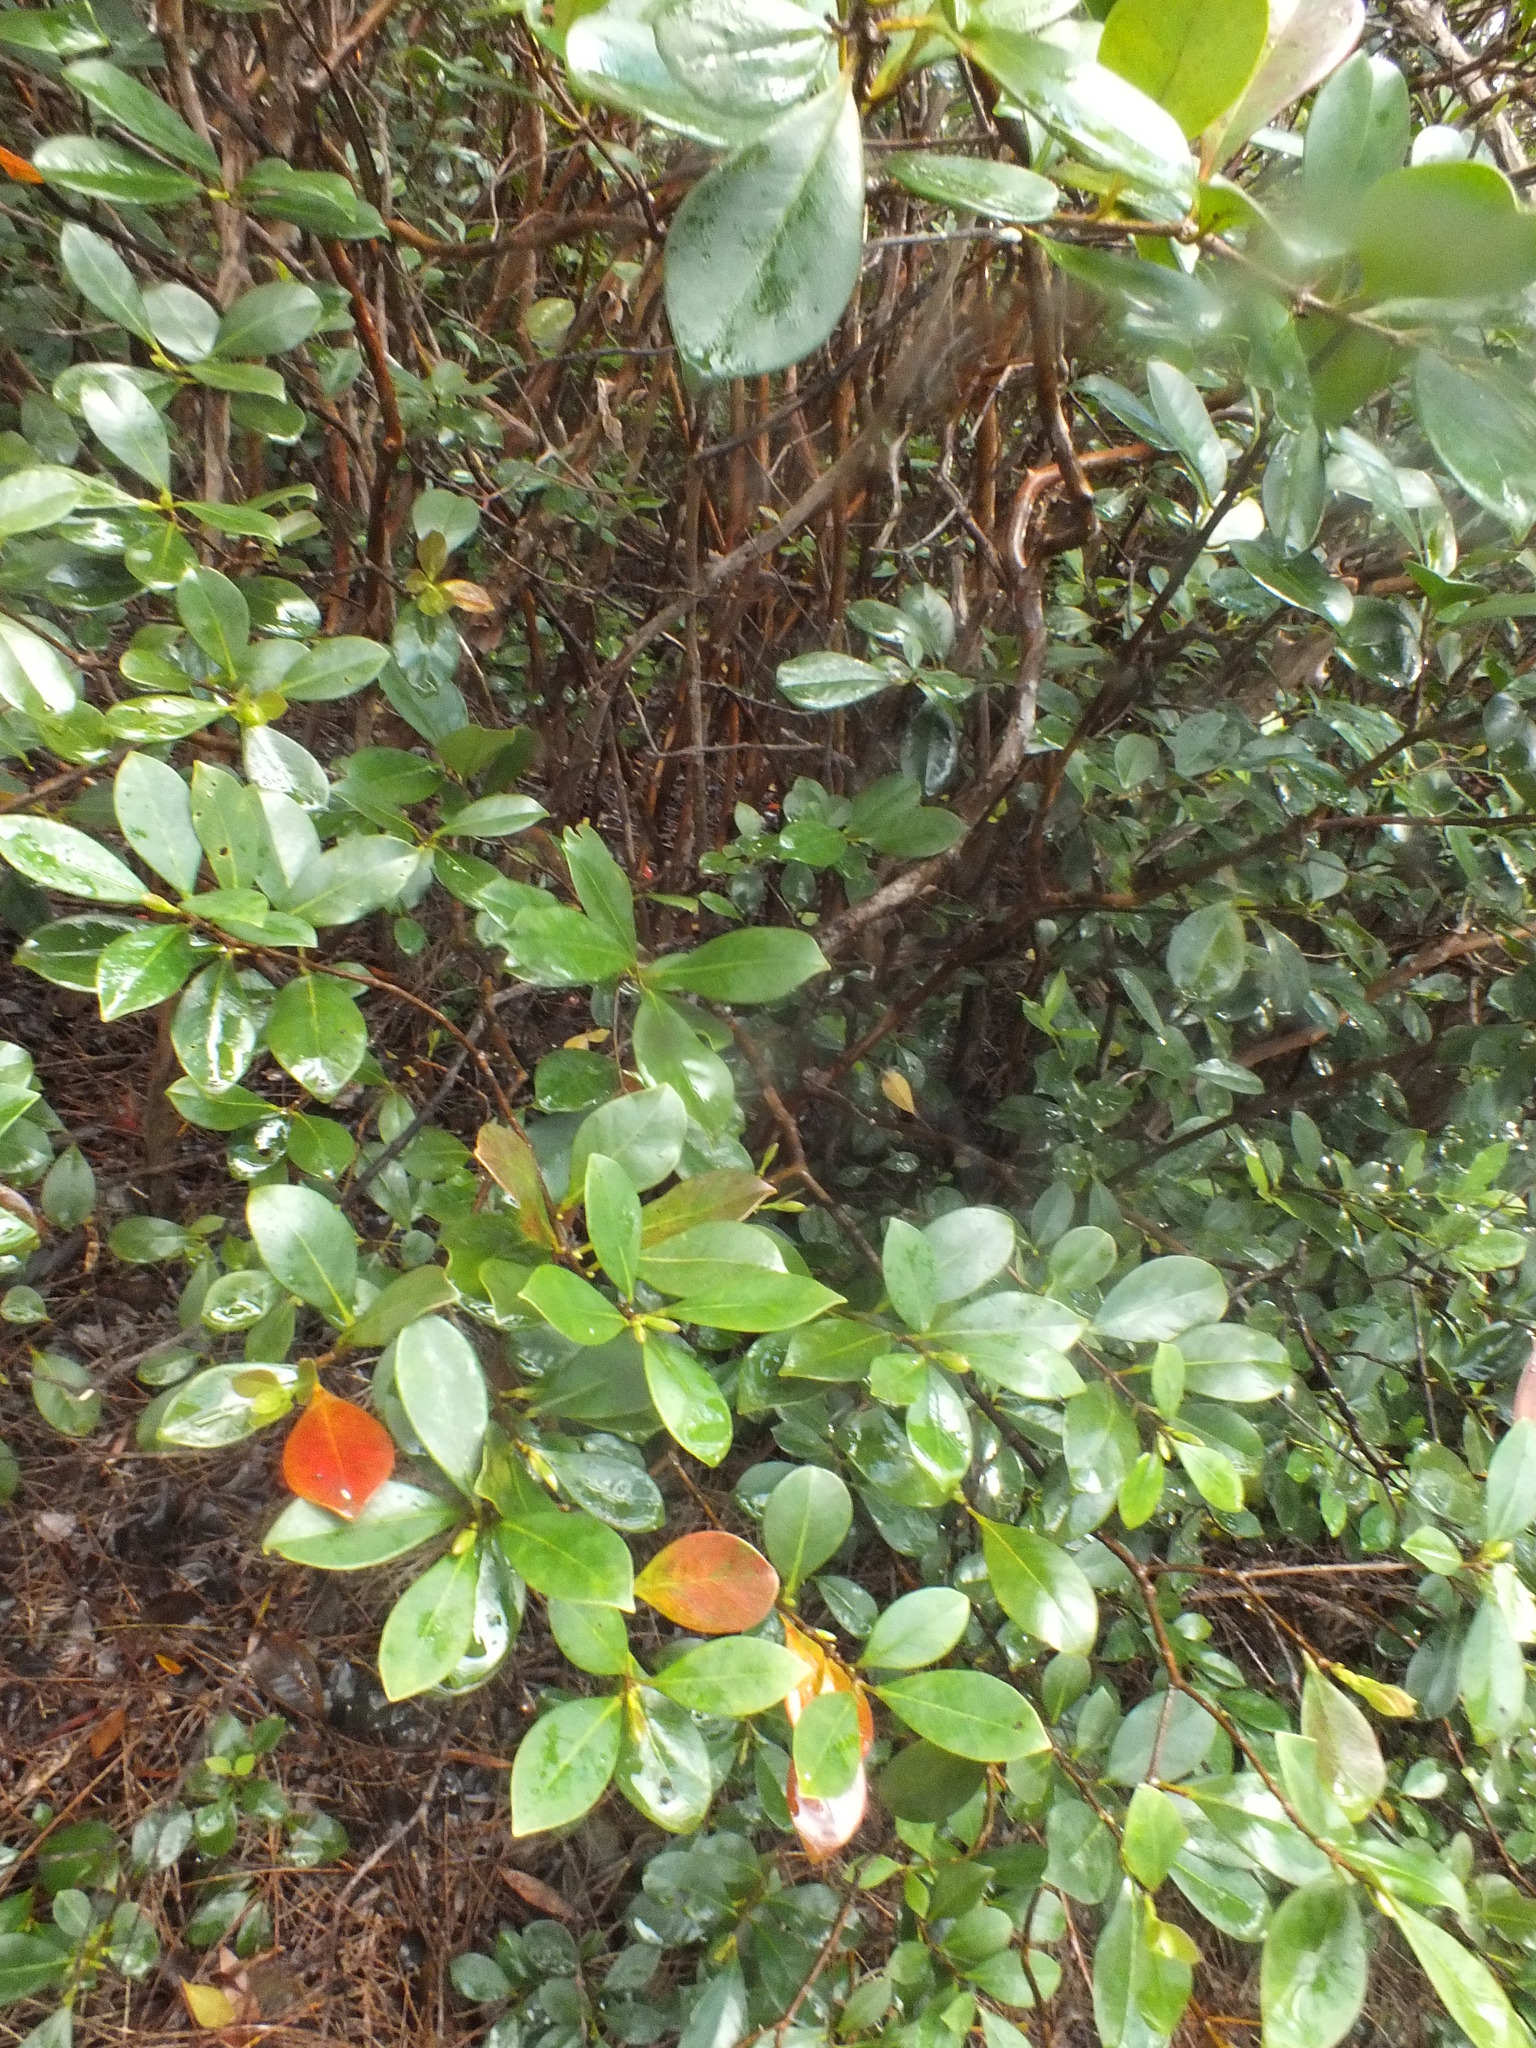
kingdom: Plantae
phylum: Tracheophyta
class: Magnoliopsida
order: Myrtales
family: Myrtaceae
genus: Psidium
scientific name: Psidium cattleianum
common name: Strawberry guava
